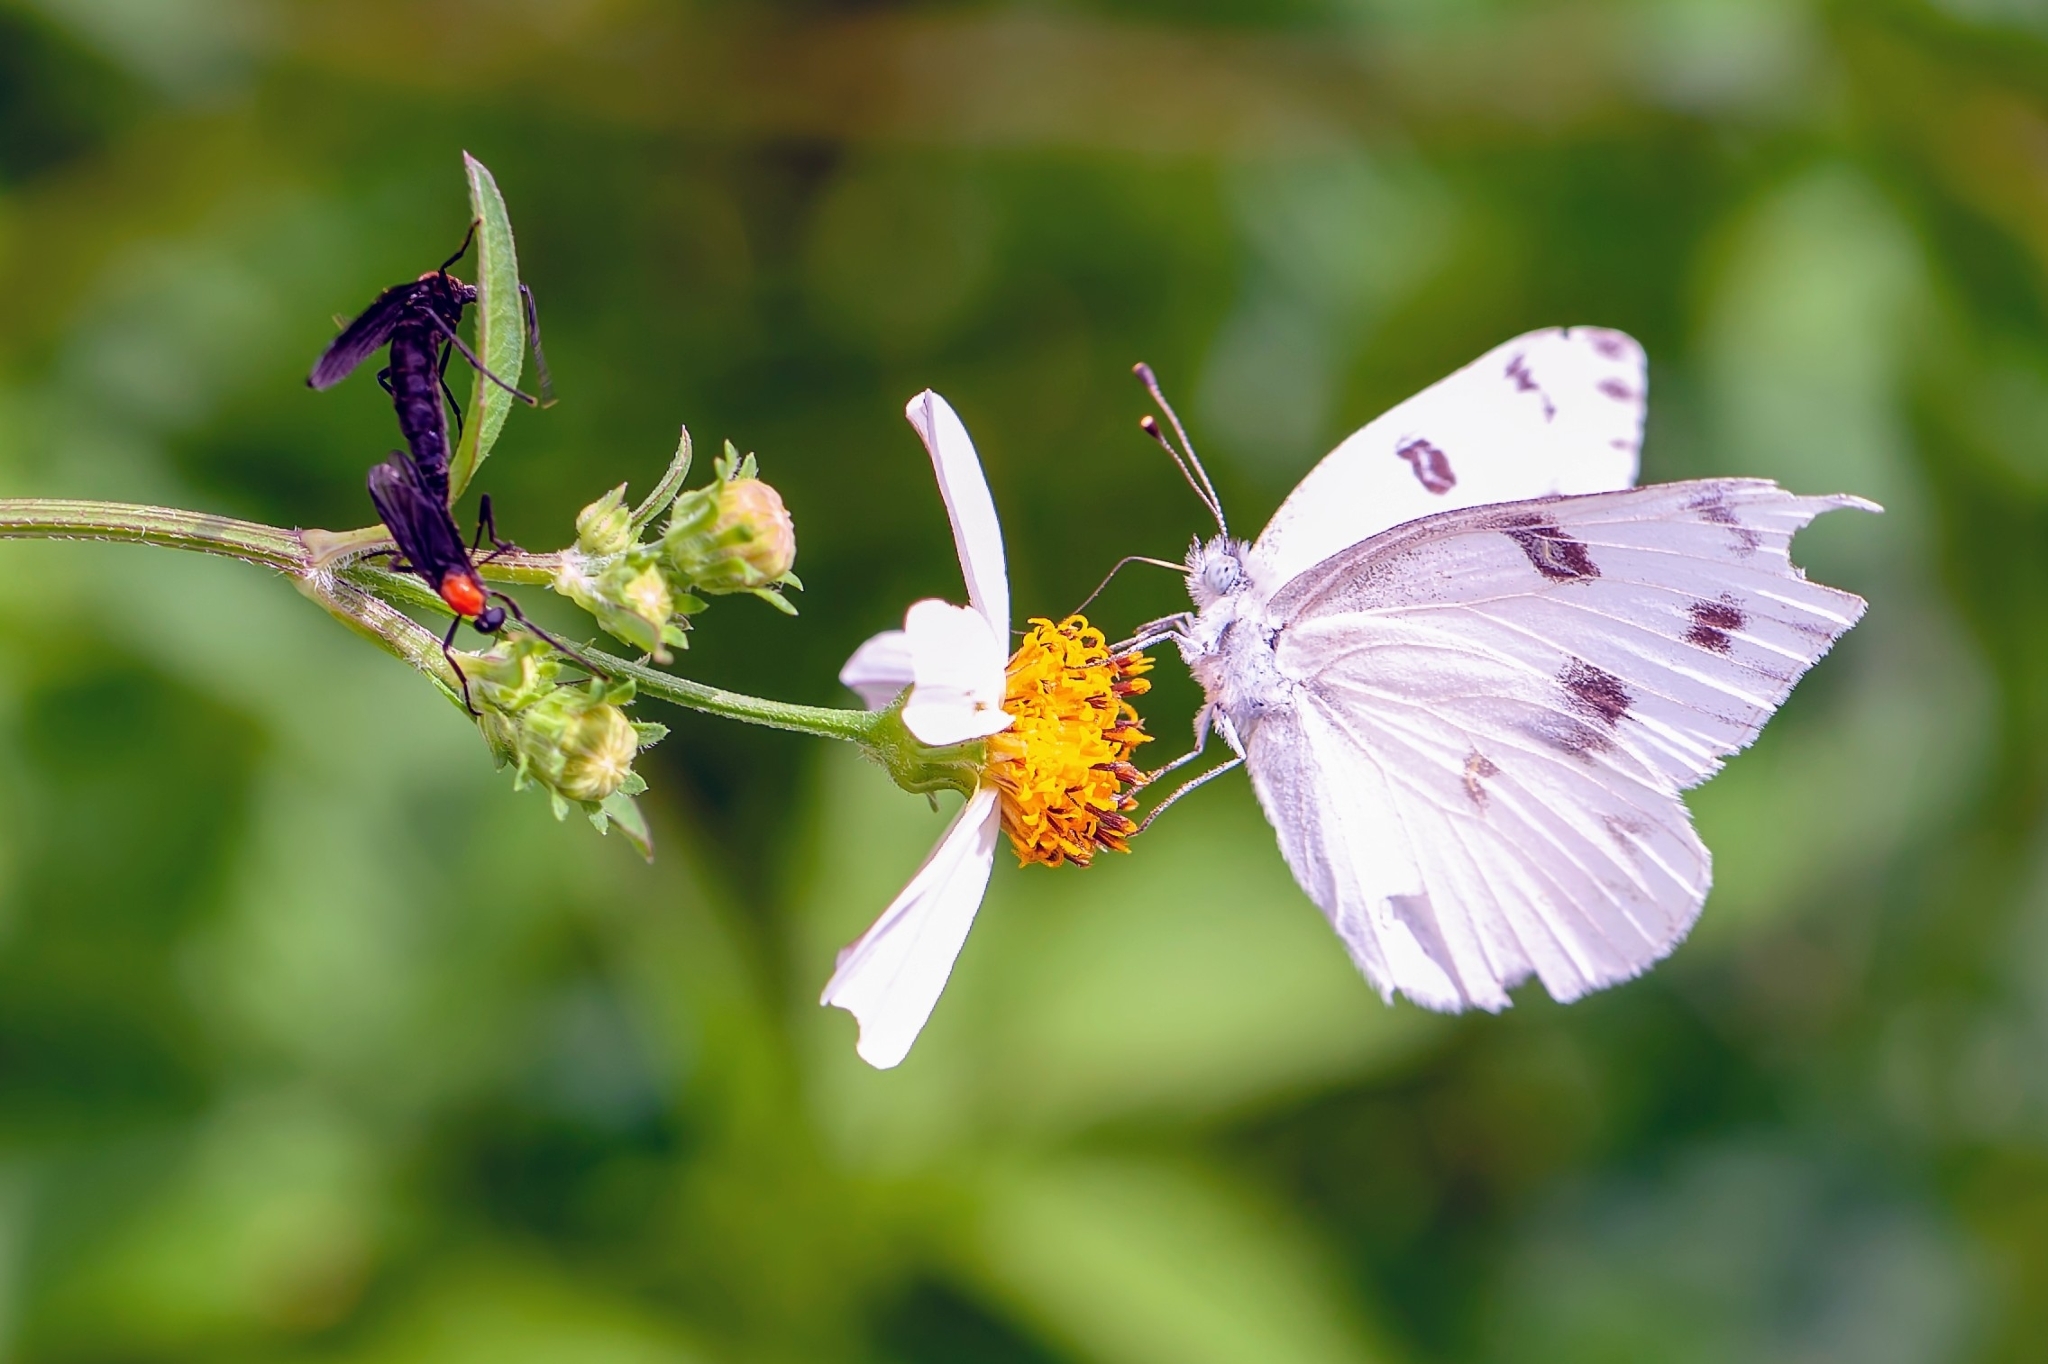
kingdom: Animalia
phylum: Arthropoda
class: Insecta
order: Lepidoptera
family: Pieridae
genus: Pontia
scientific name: Pontia protodice
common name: Checkered white
